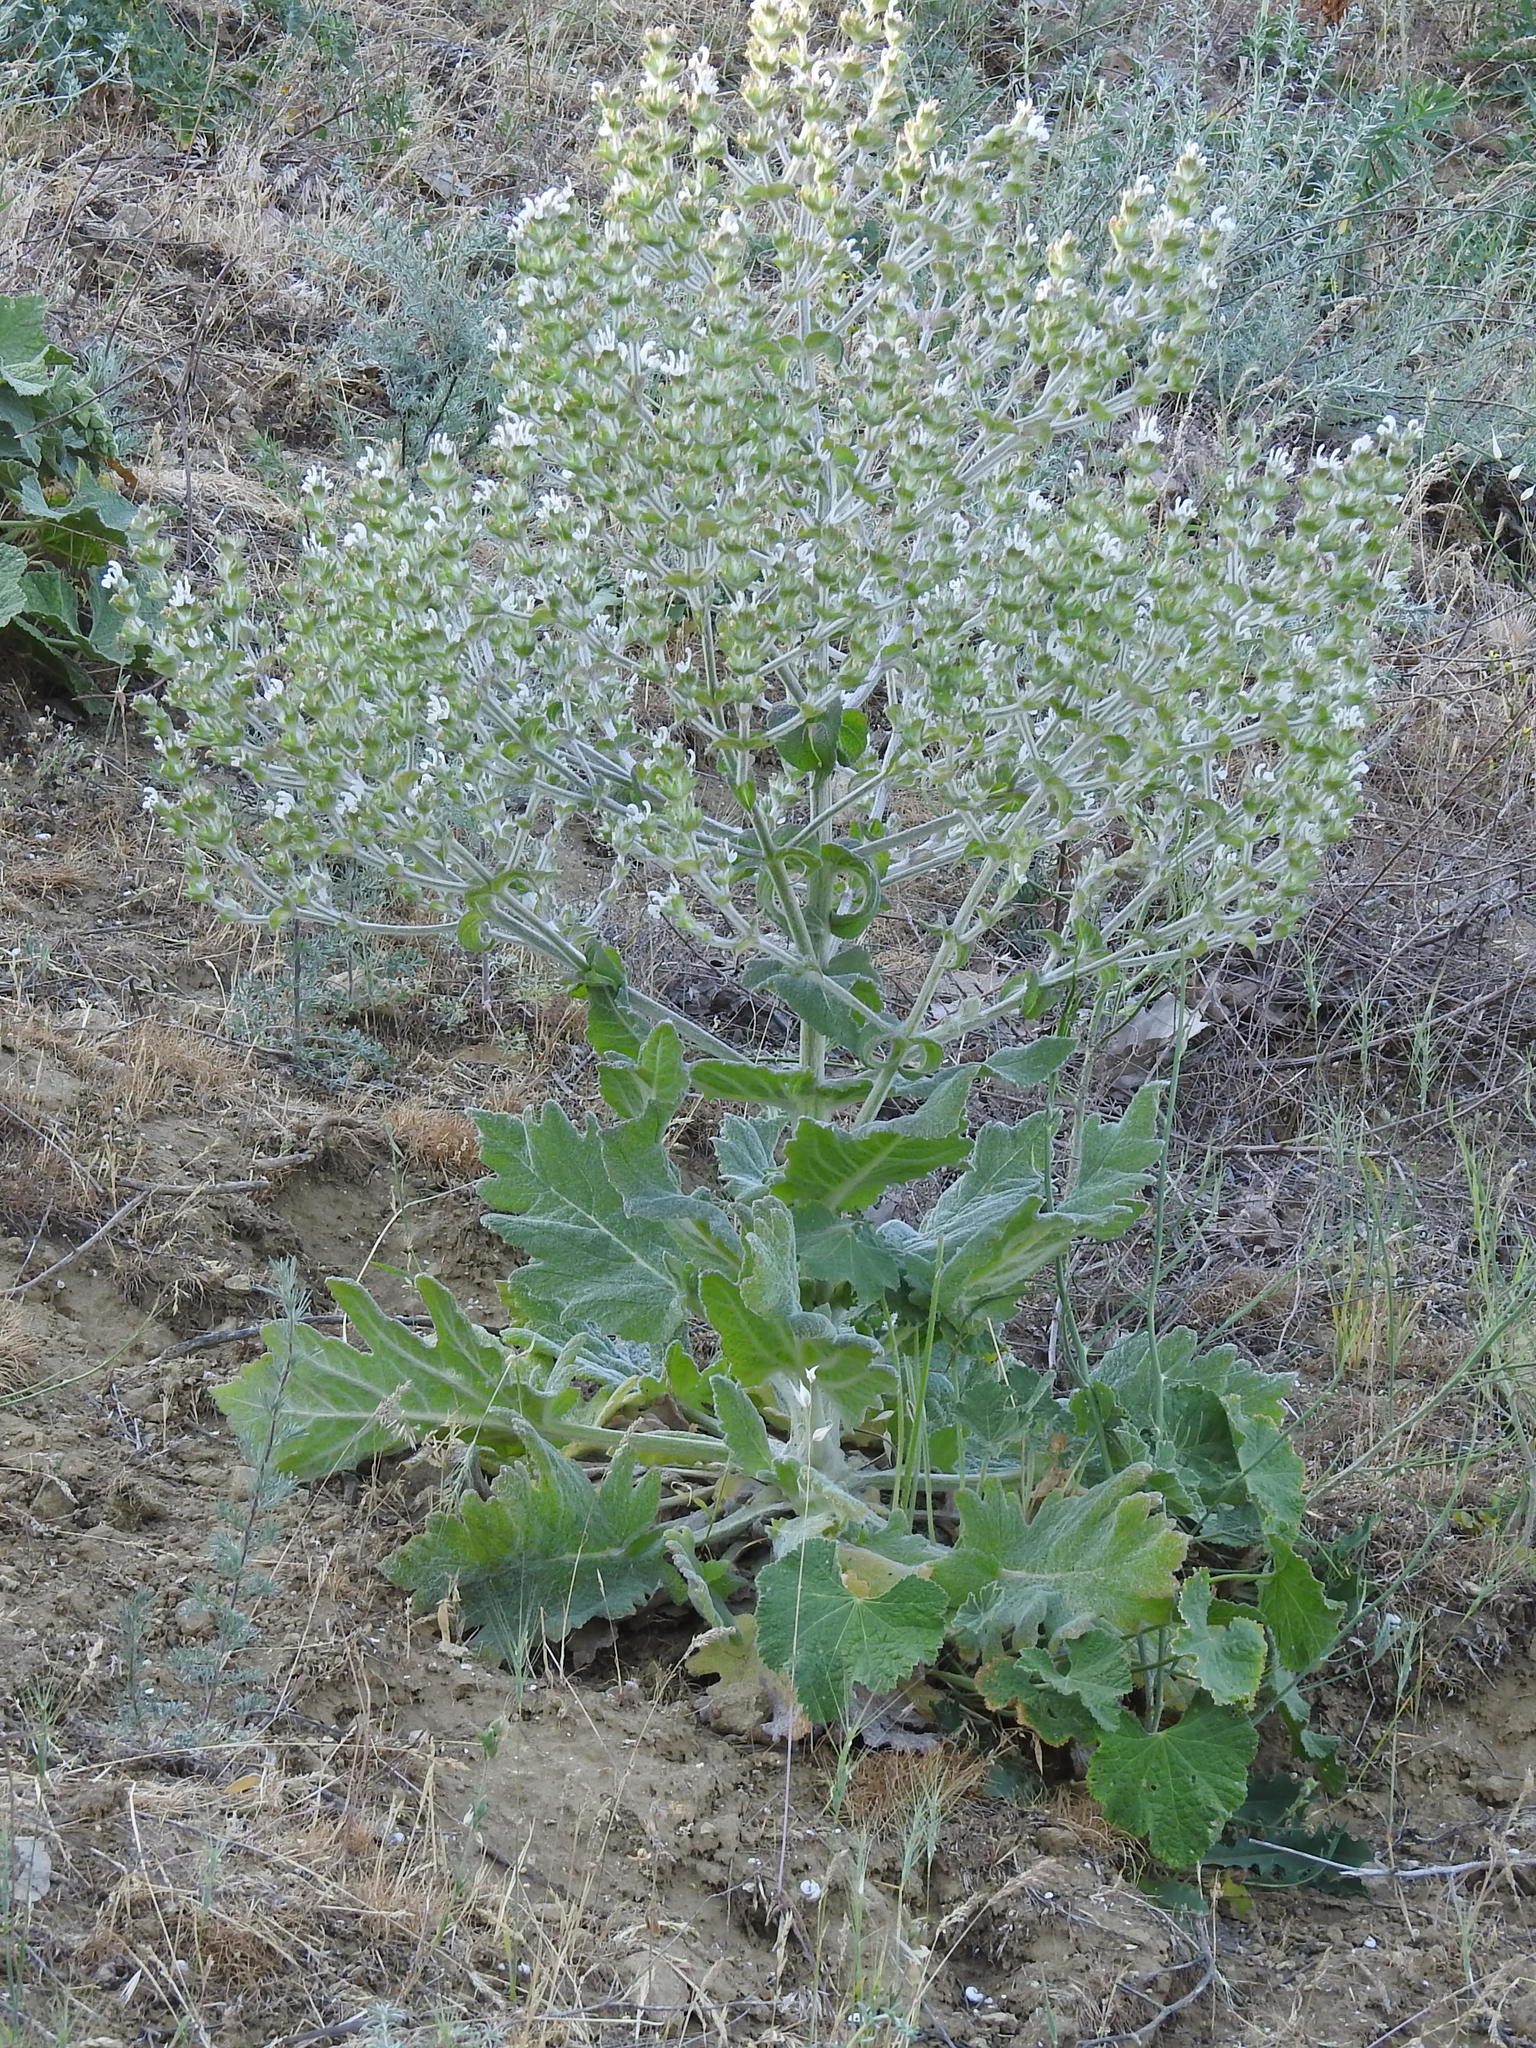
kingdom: Plantae
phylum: Tracheophyta
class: Magnoliopsida
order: Lamiales
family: Lamiaceae
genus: Salvia
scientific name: Salvia aethiopis
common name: Mediterranean sage
